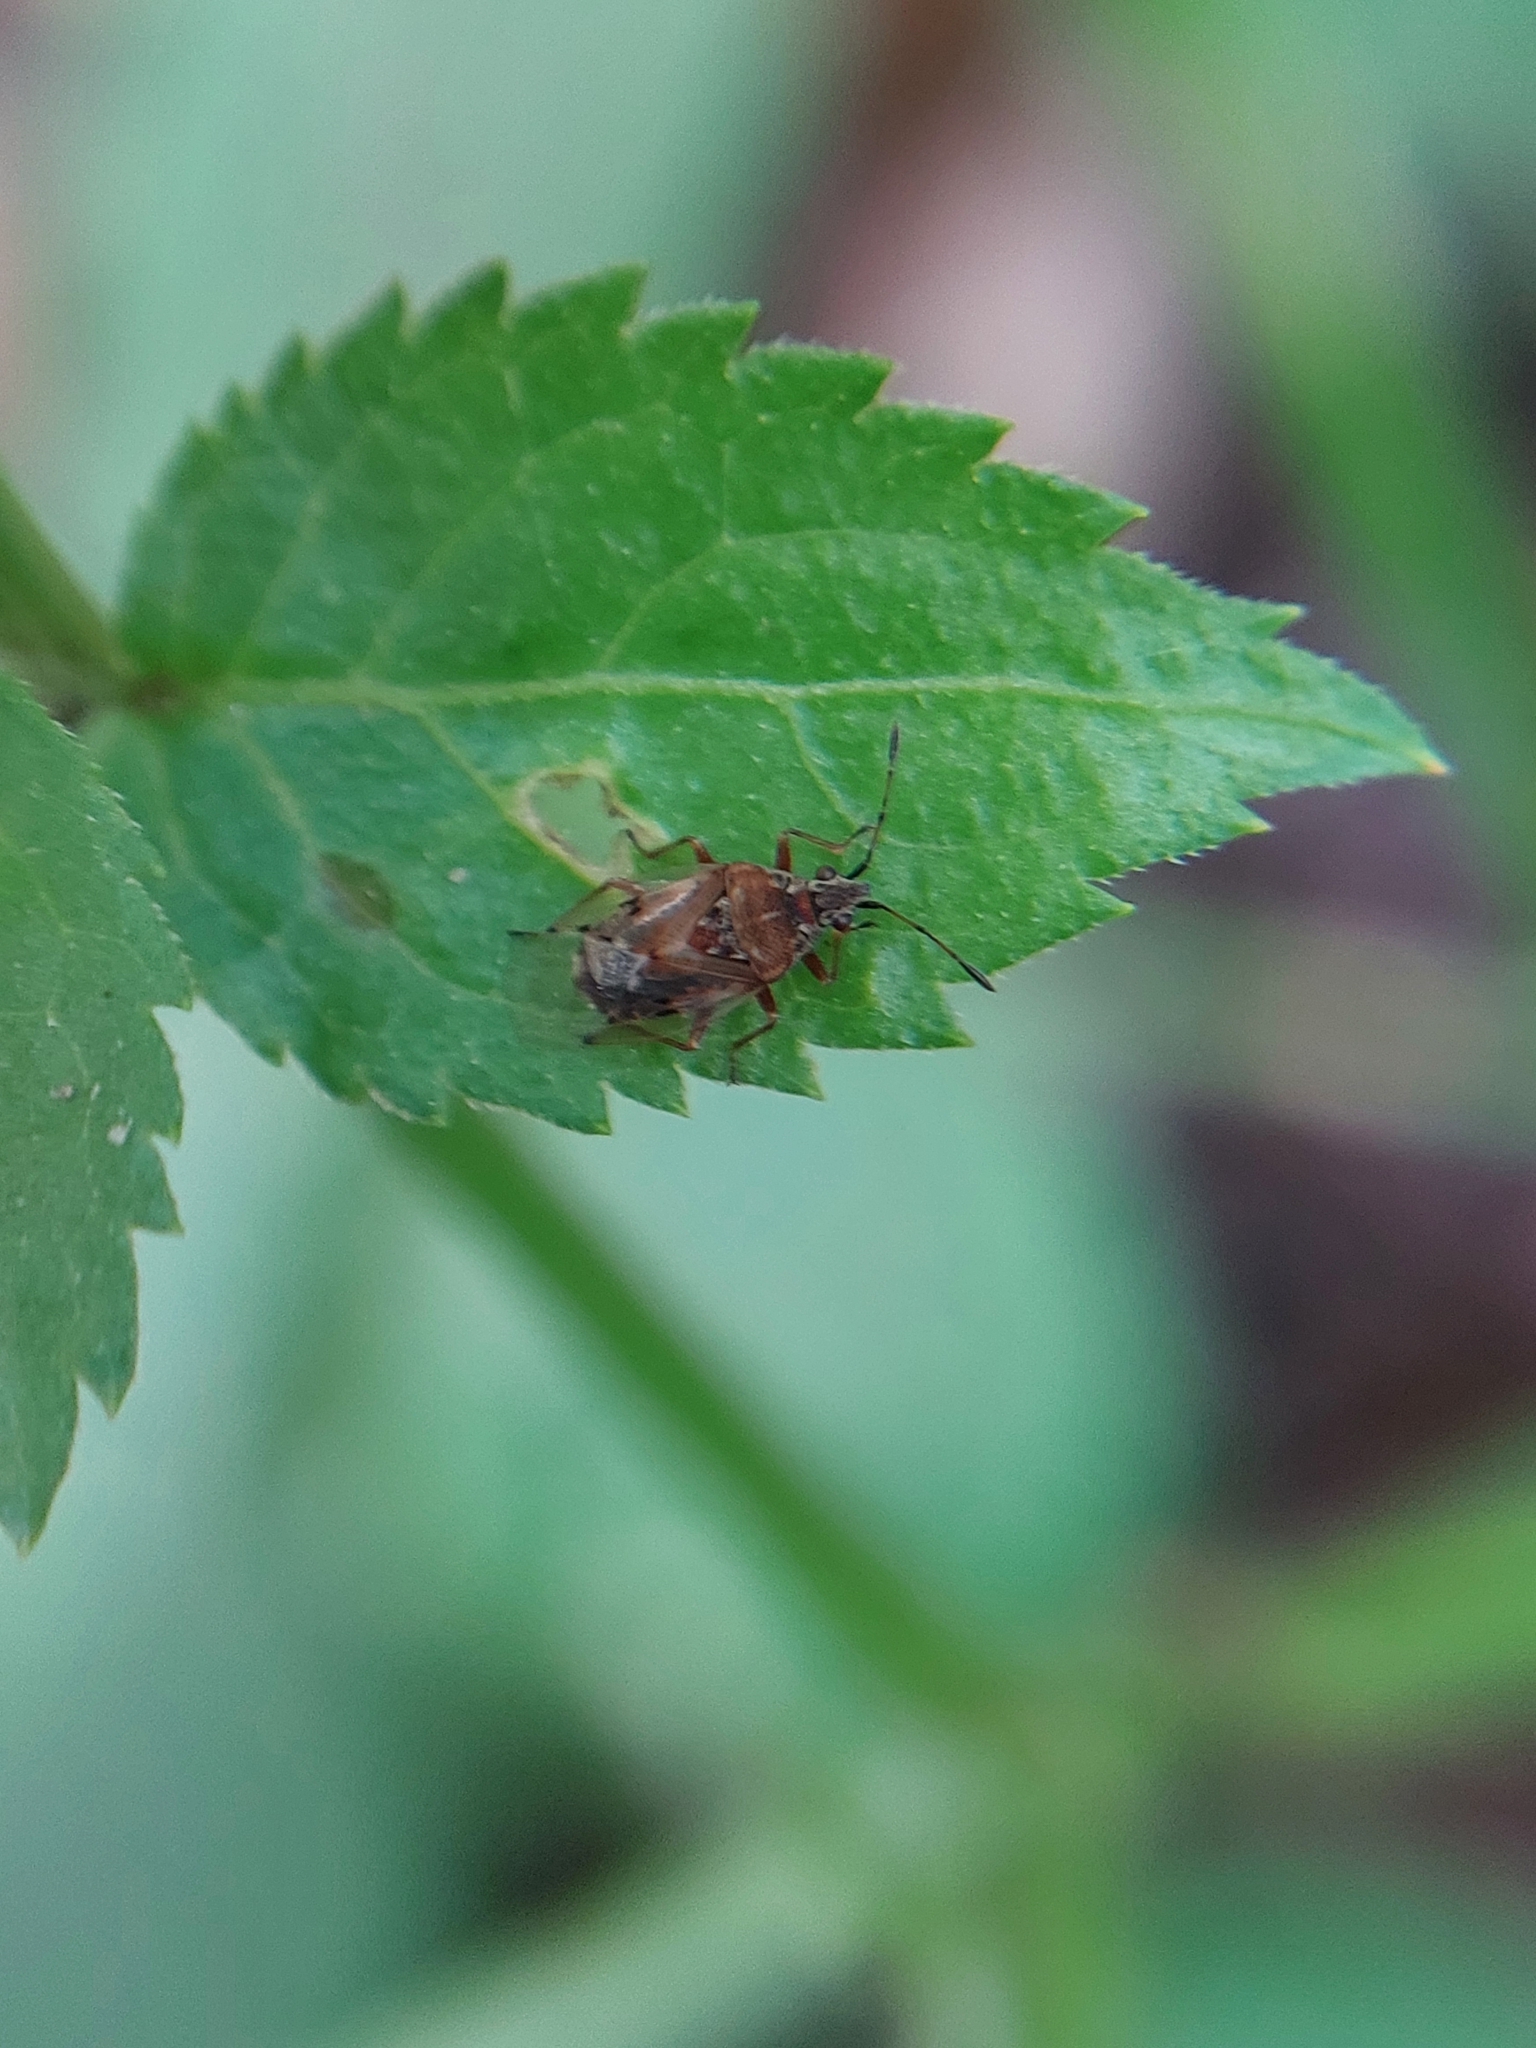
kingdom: Animalia
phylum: Arthropoda
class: Insecta
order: Hemiptera
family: Lygaeidae
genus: Kleidocerys
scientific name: Kleidocerys resedae
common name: Birch catkin bug
